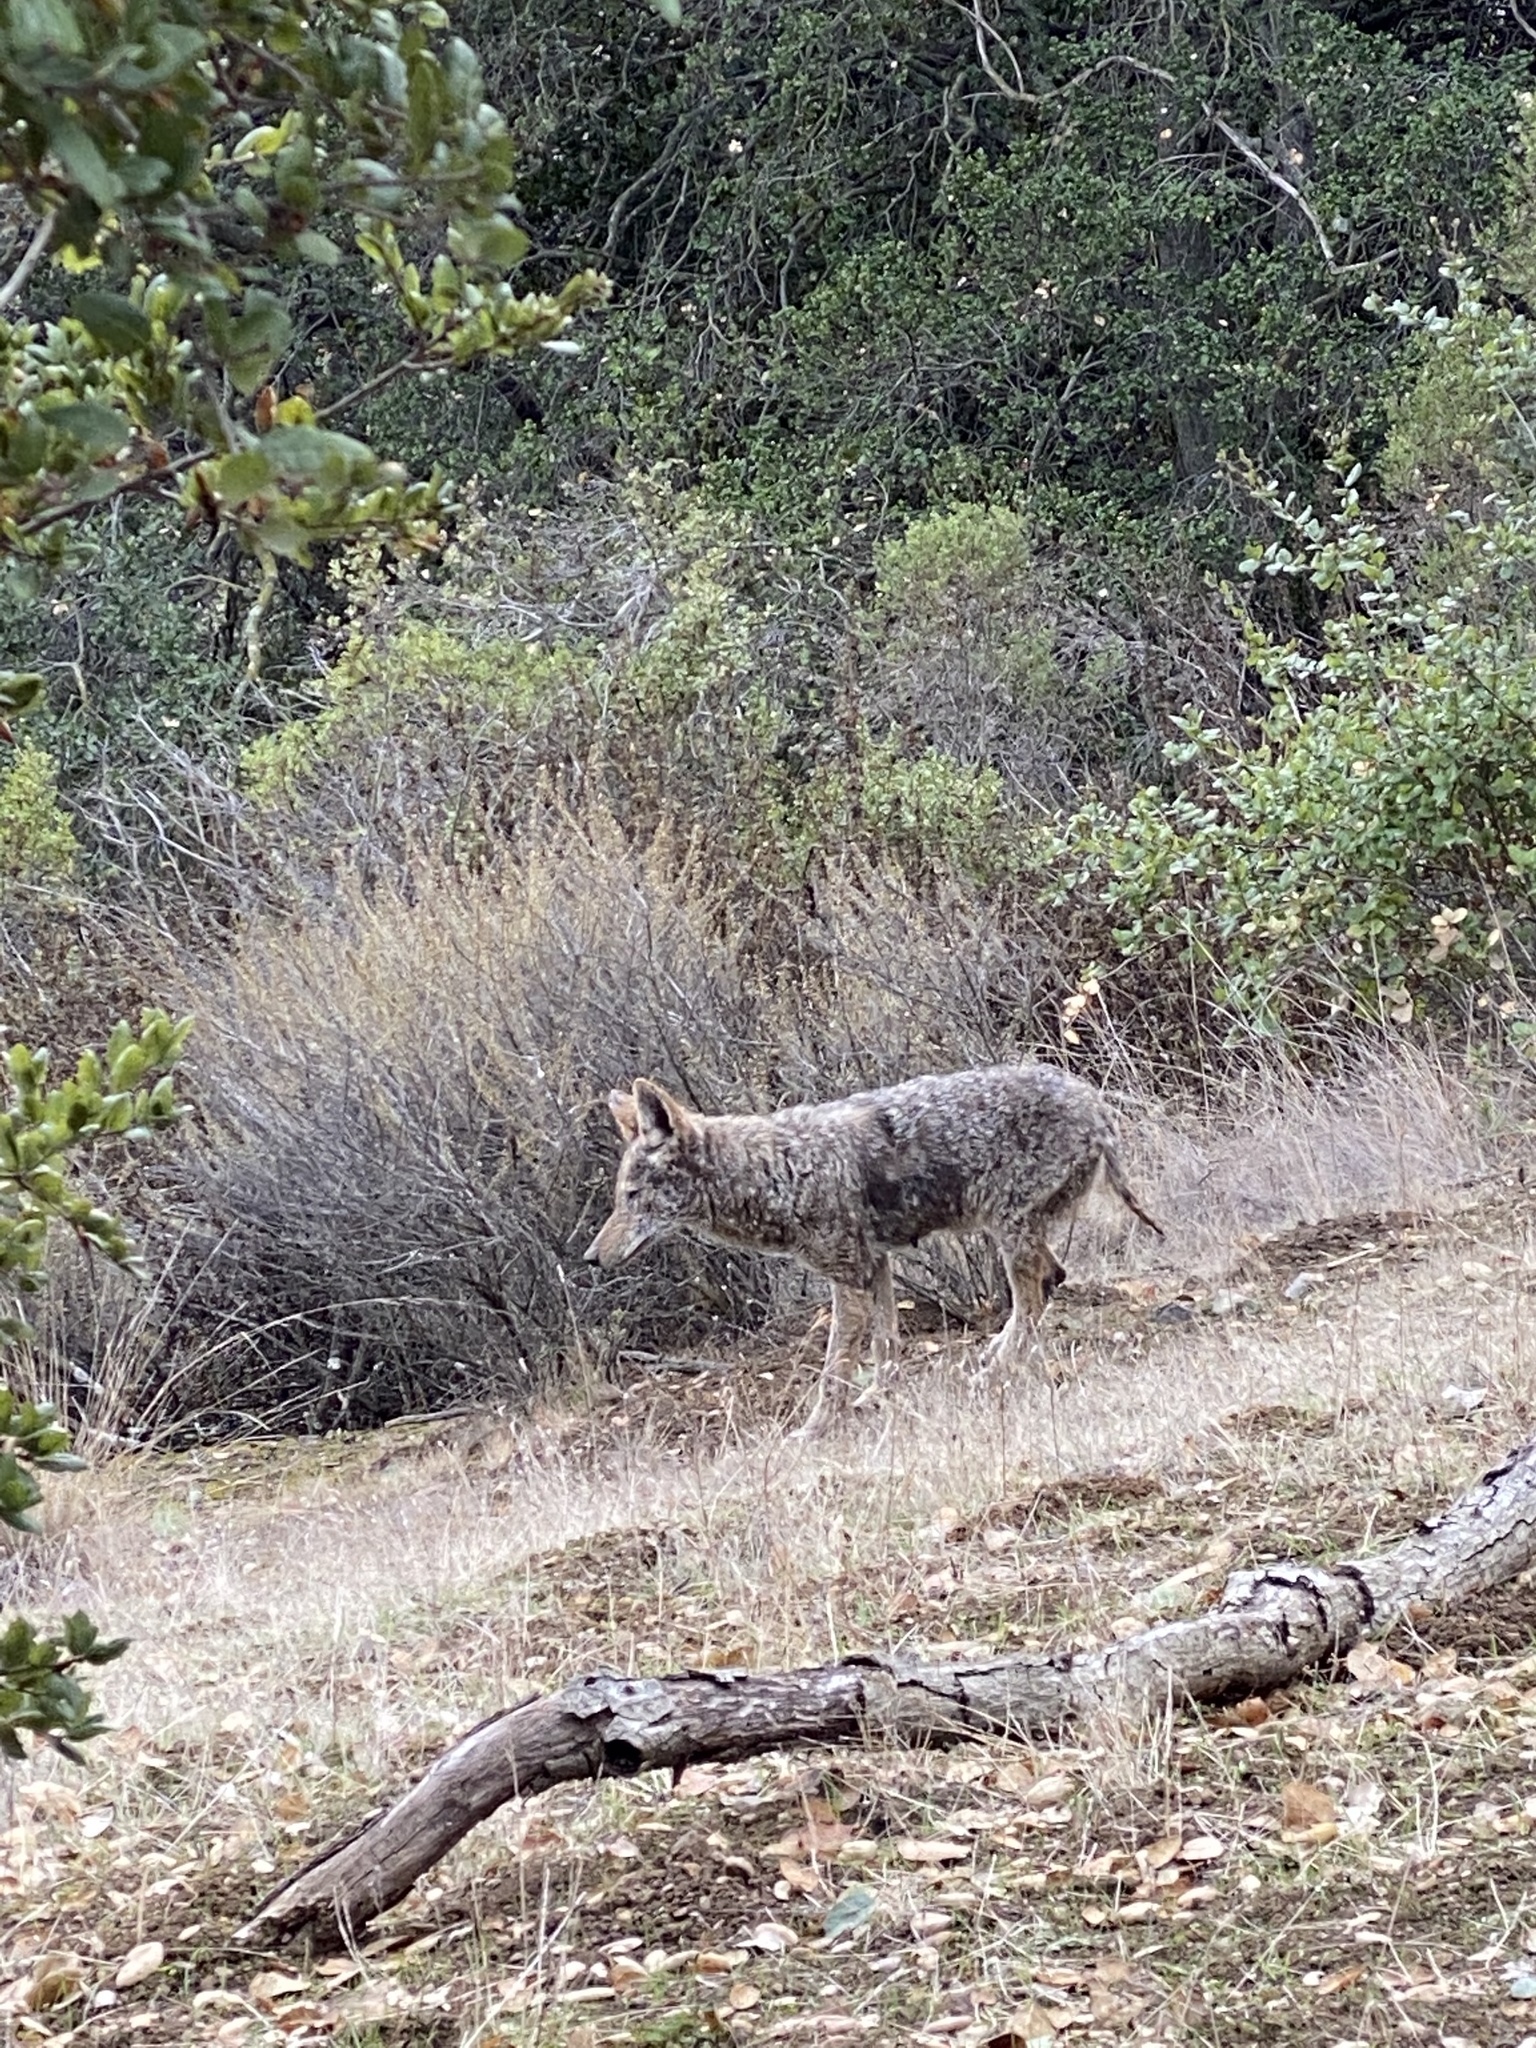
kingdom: Animalia
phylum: Chordata
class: Mammalia
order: Carnivora
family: Canidae
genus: Canis
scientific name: Canis latrans
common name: Coyote
